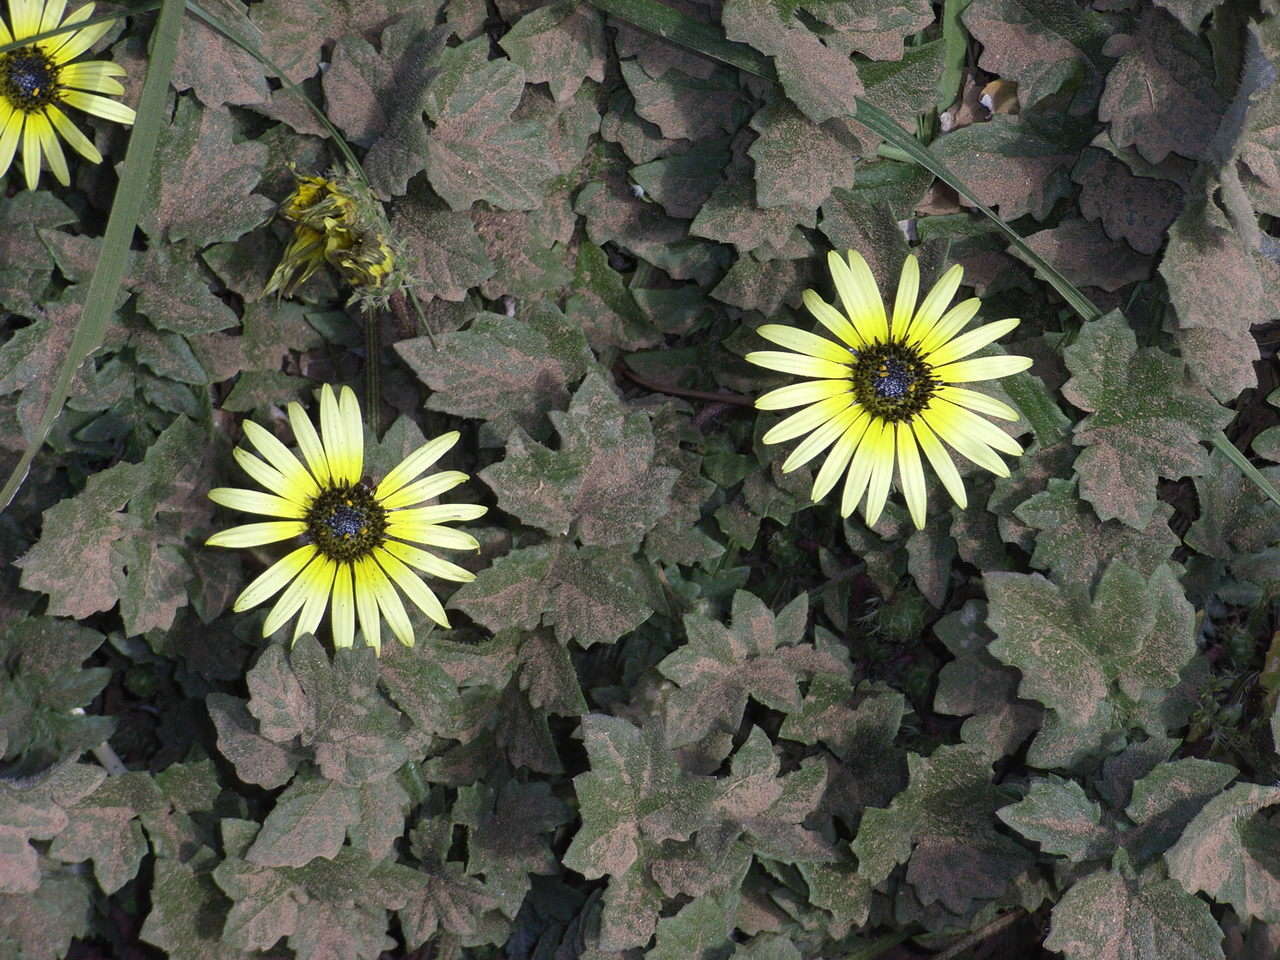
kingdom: Plantae
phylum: Tracheophyta
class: Magnoliopsida
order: Asterales
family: Asteraceae
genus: Arctotheca
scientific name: Arctotheca calendula
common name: Capeweed
